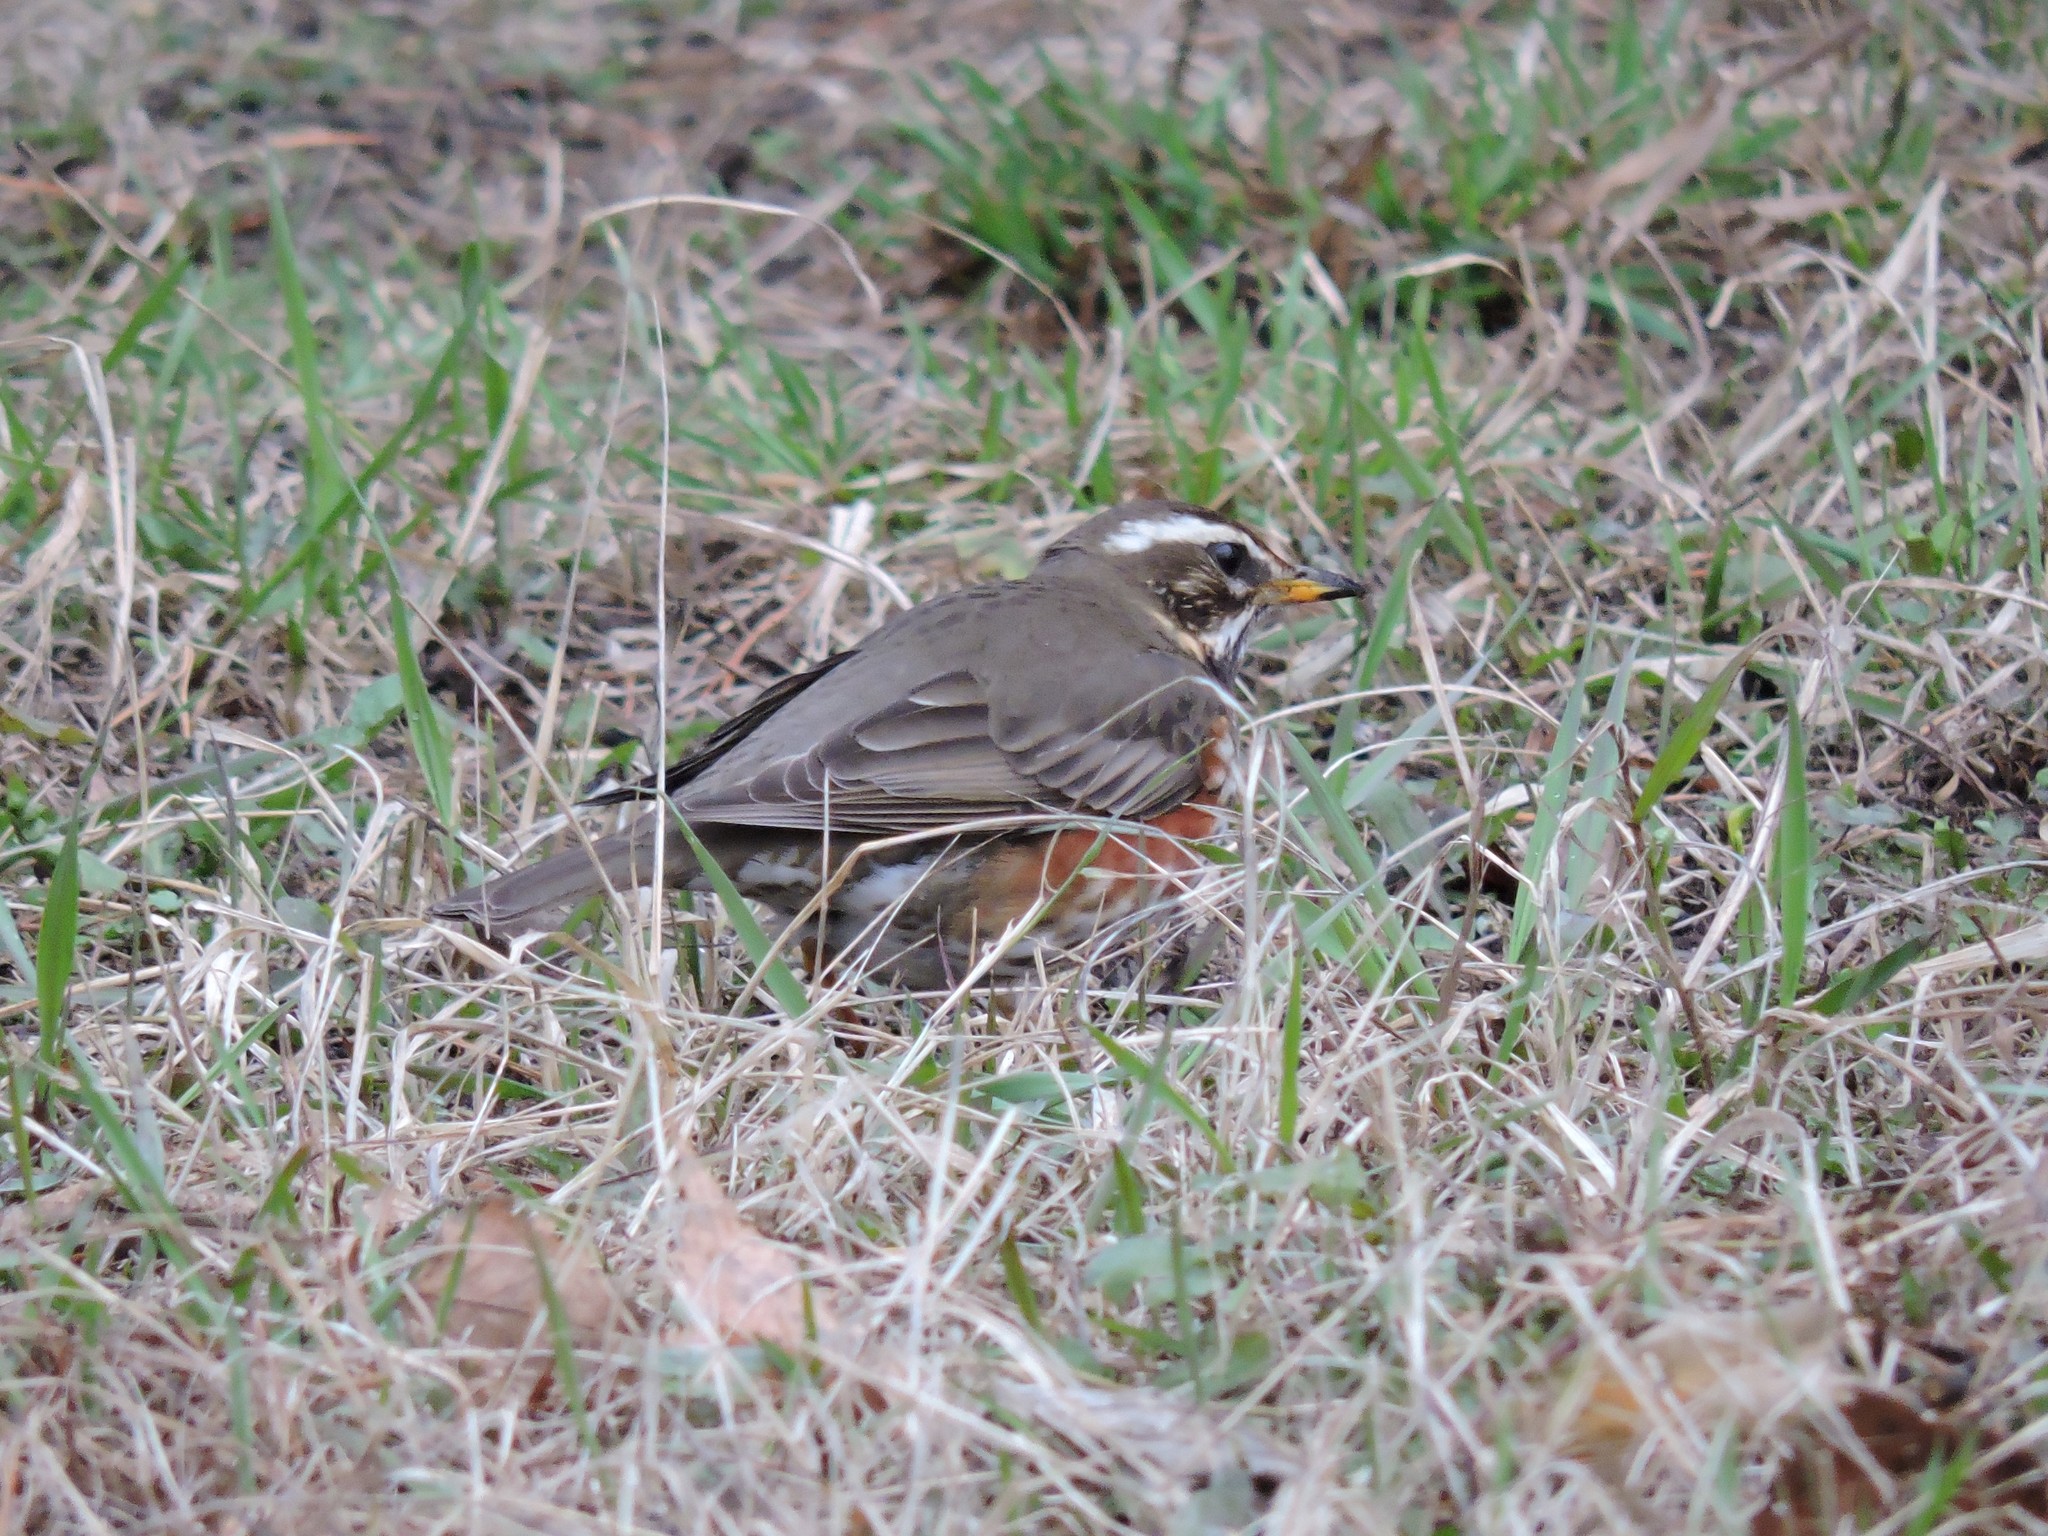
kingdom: Animalia
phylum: Chordata
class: Aves
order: Passeriformes
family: Turdidae
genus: Turdus
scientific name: Turdus iliacus
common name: Redwing
